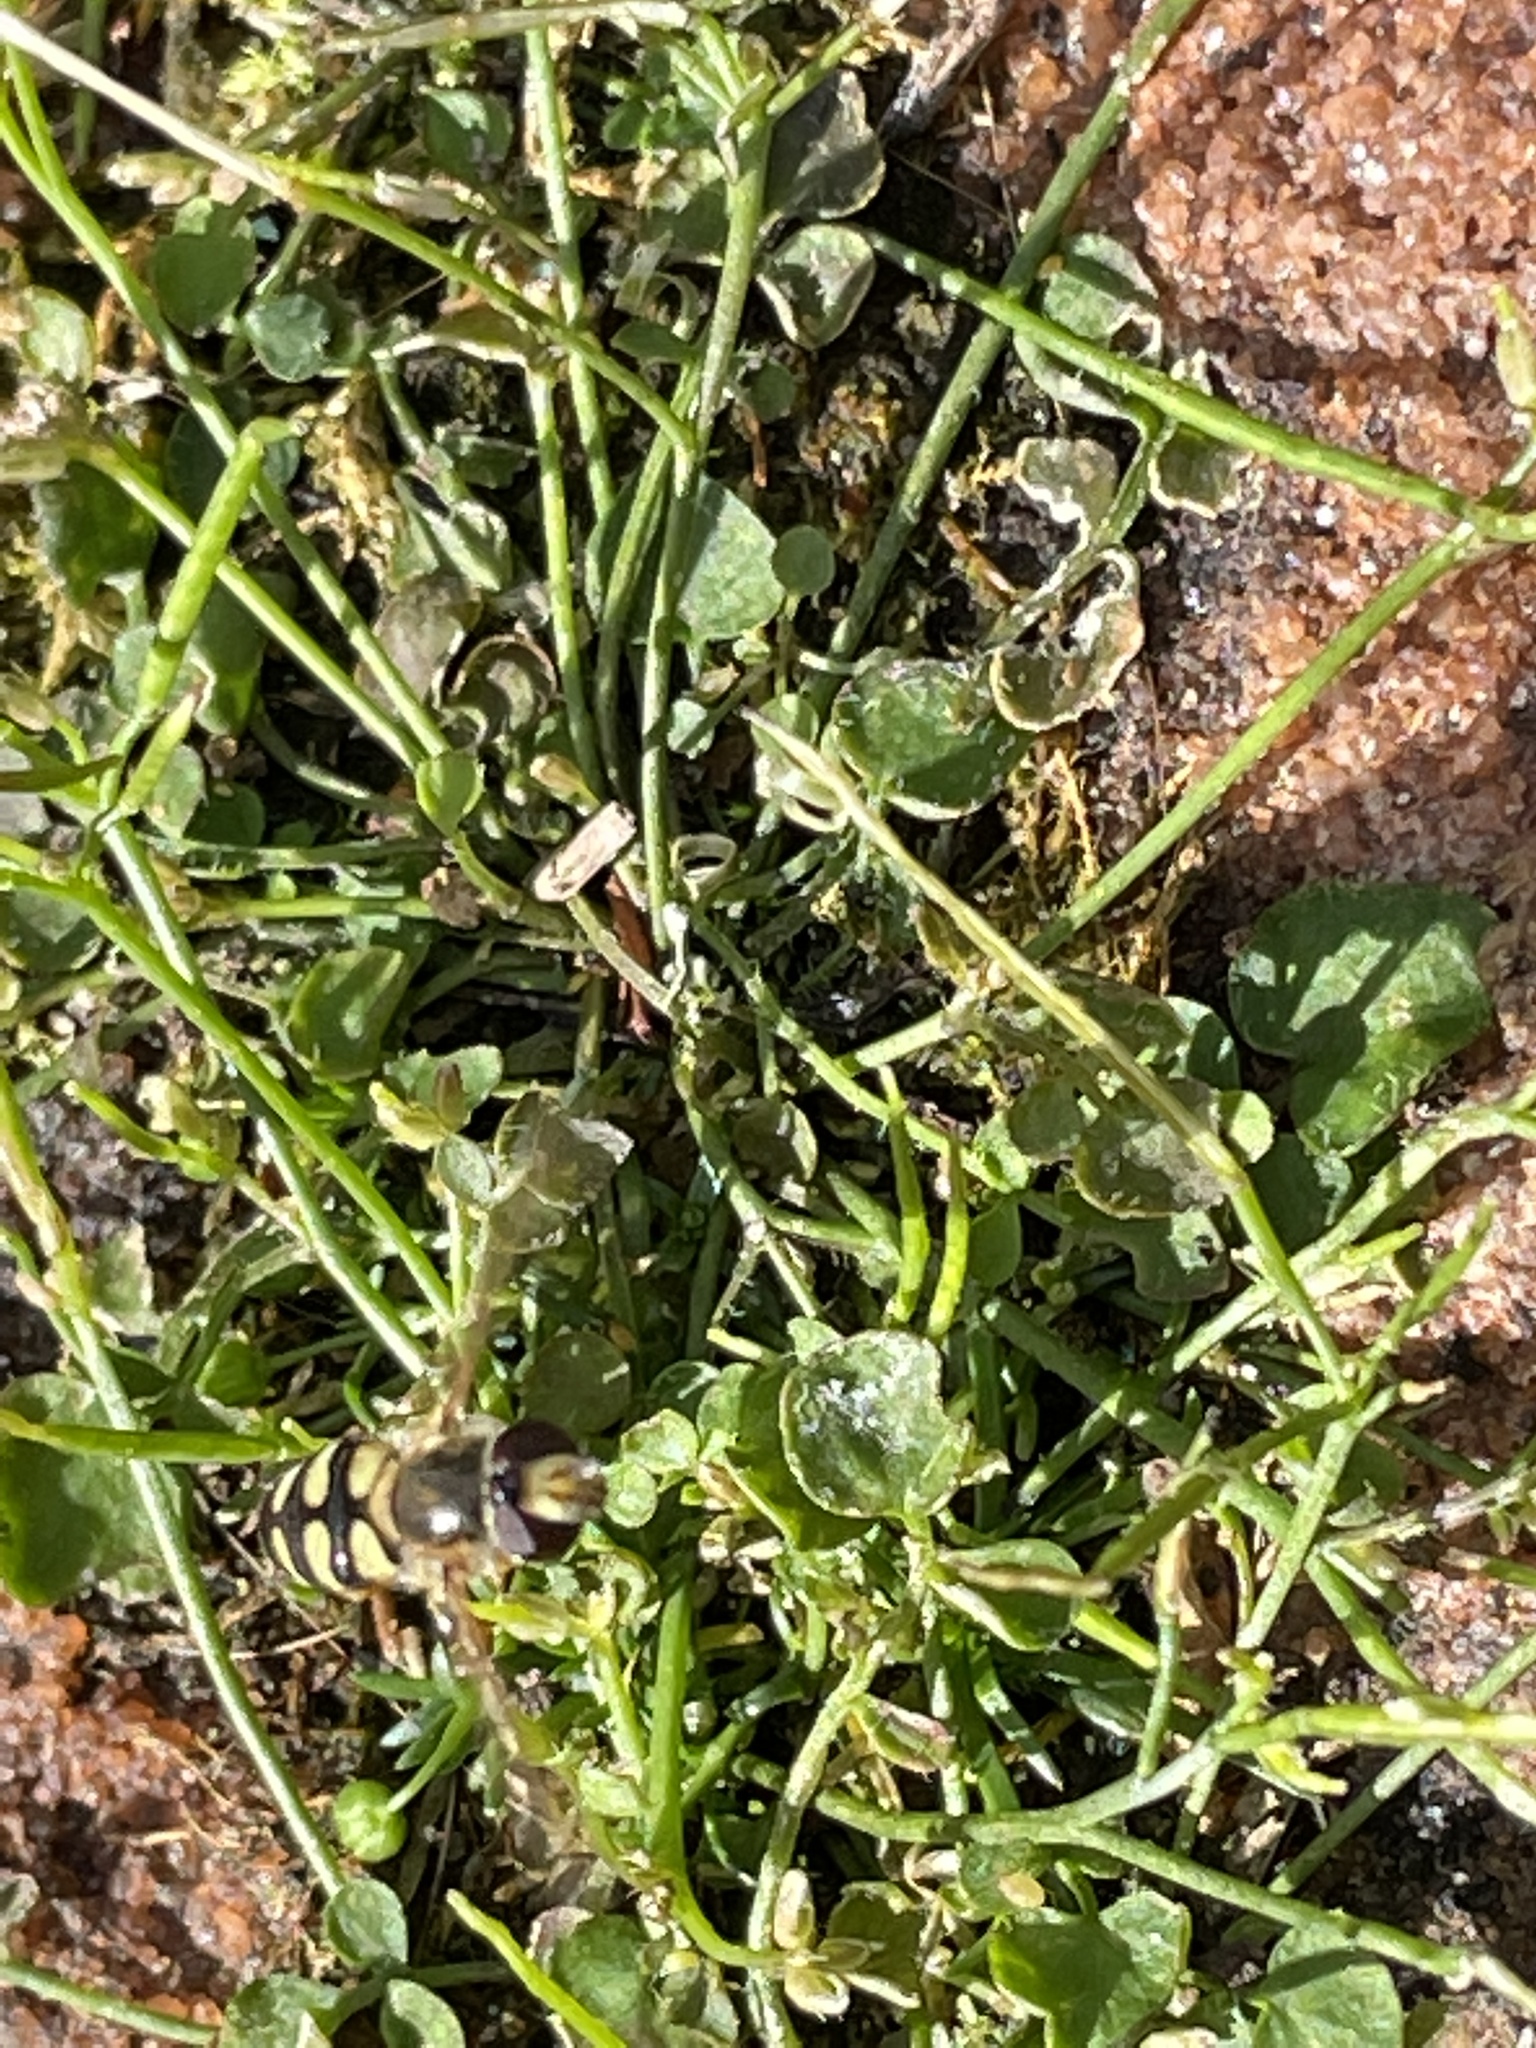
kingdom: Animalia
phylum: Arthropoda
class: Insecta
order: Diptera
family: Syrphidae
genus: Eupeodes
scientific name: Eupeodes corollae
